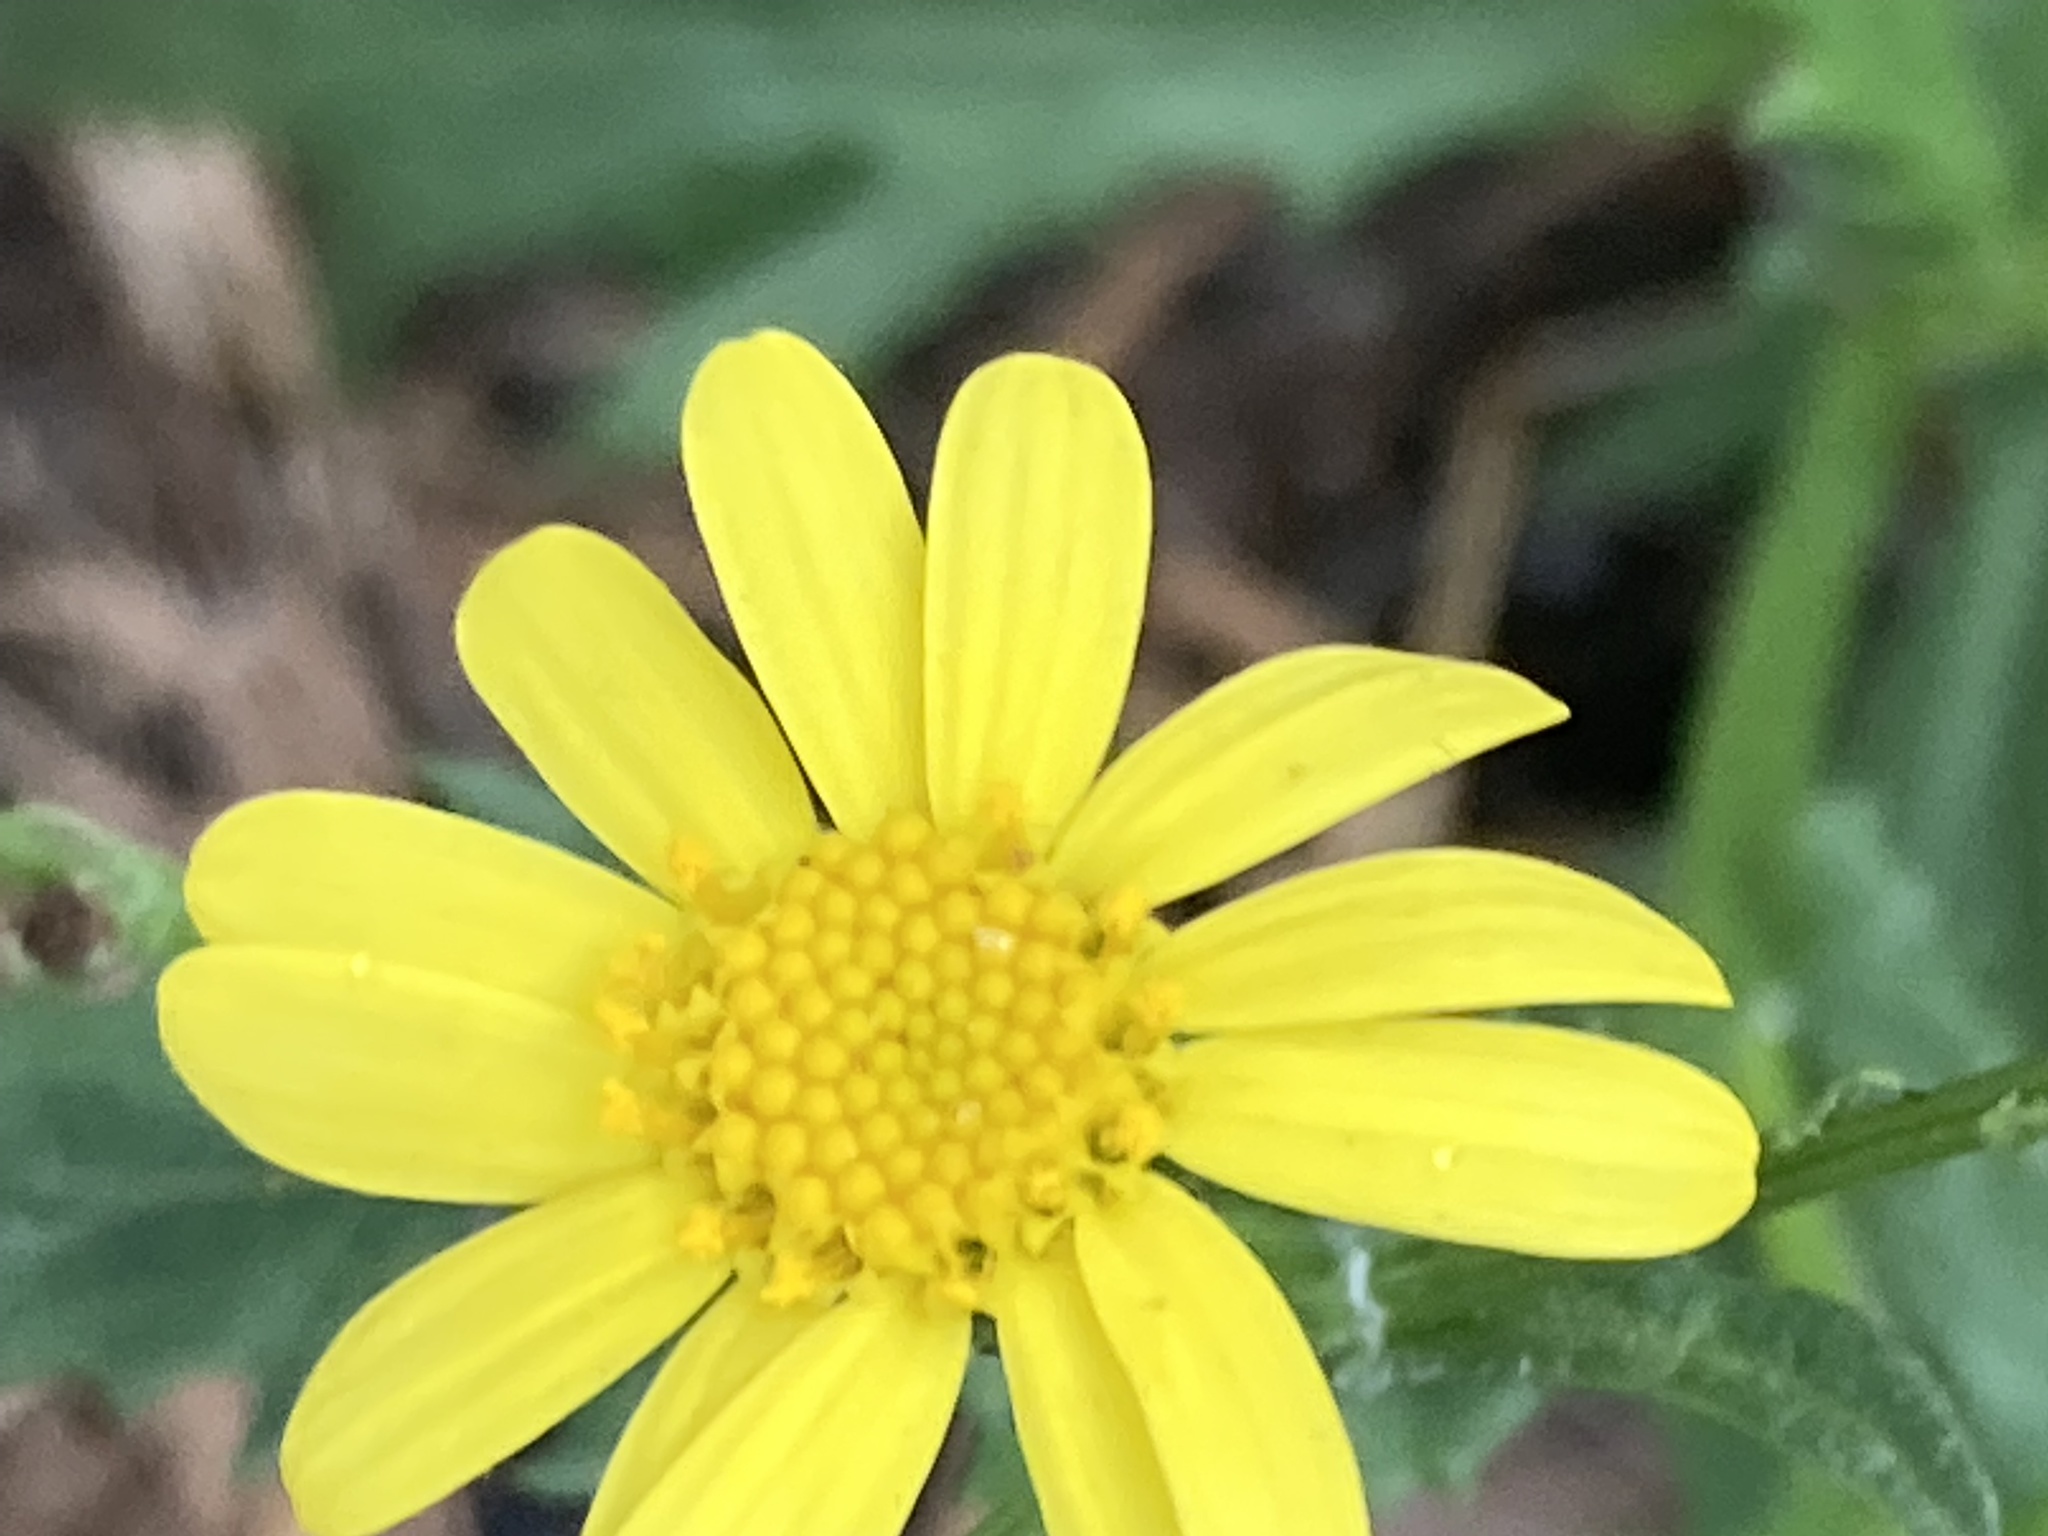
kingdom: Plantae
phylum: Tracheophyta
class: Magnoliopsida
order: Asterales
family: Asteraceae
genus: Senecio
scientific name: Senecio squalidus
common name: Oxford ragwort
